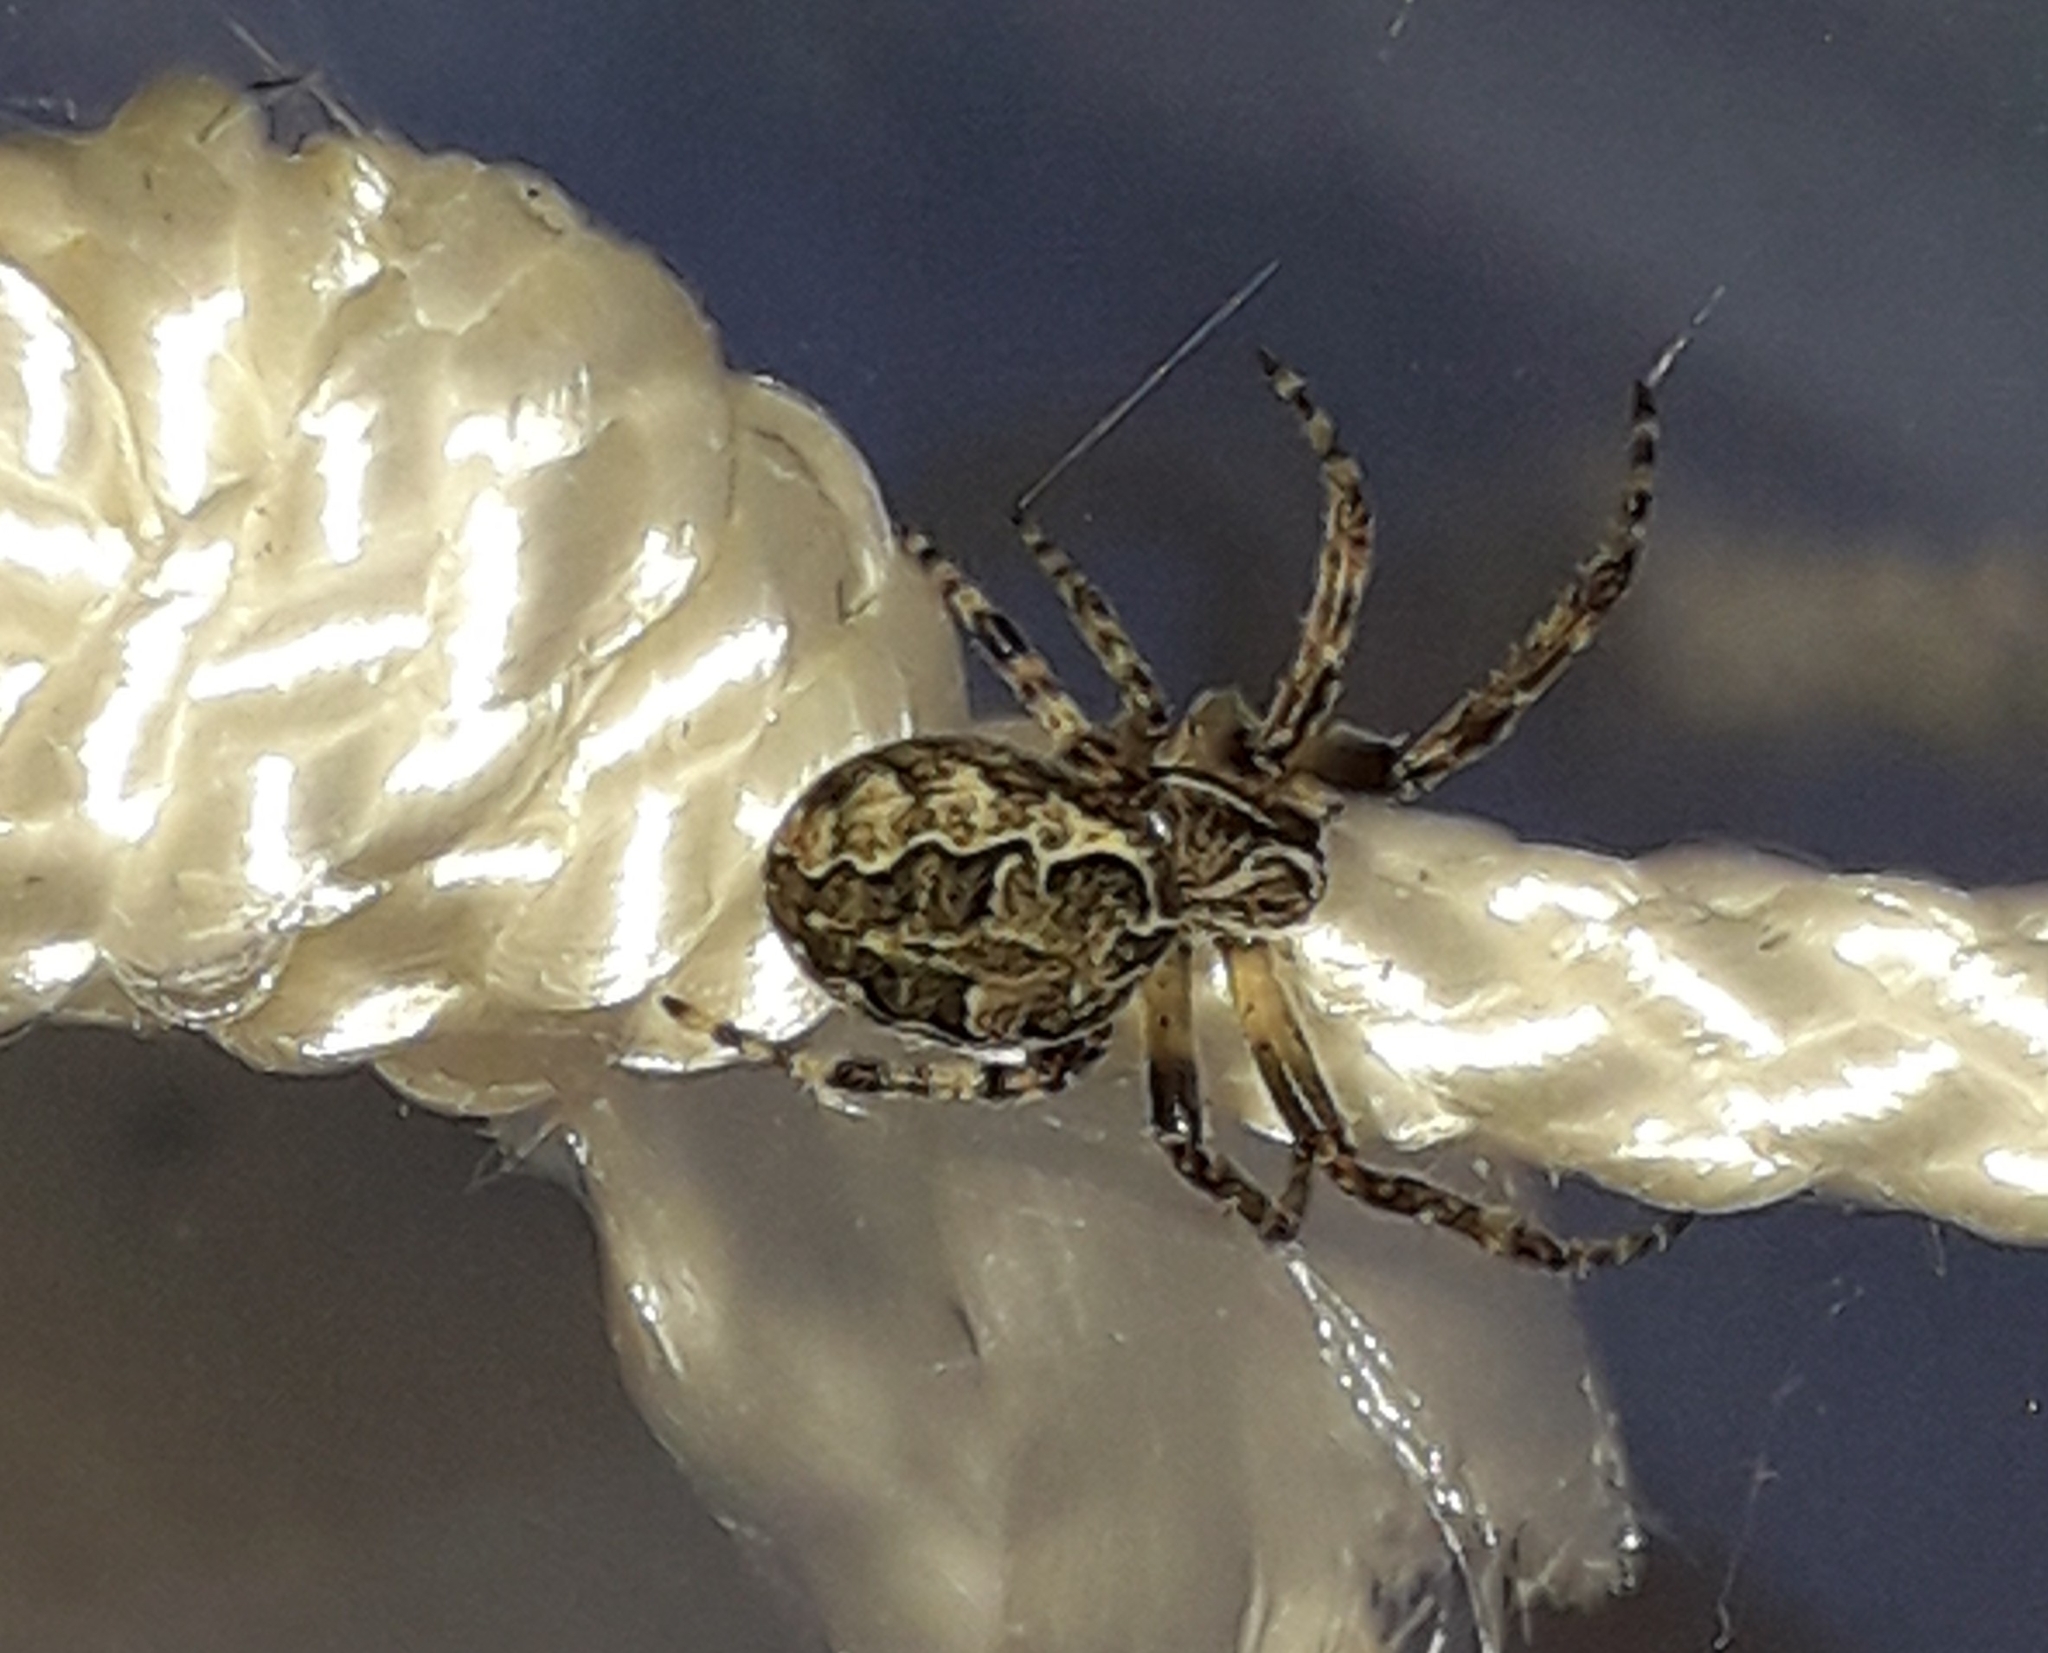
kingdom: Animalia
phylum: Arthropoda
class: Arachnida
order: Araneae
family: Araneidae
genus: Larinioides
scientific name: Larinioides sclopetarius
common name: Bridge orbweaver
